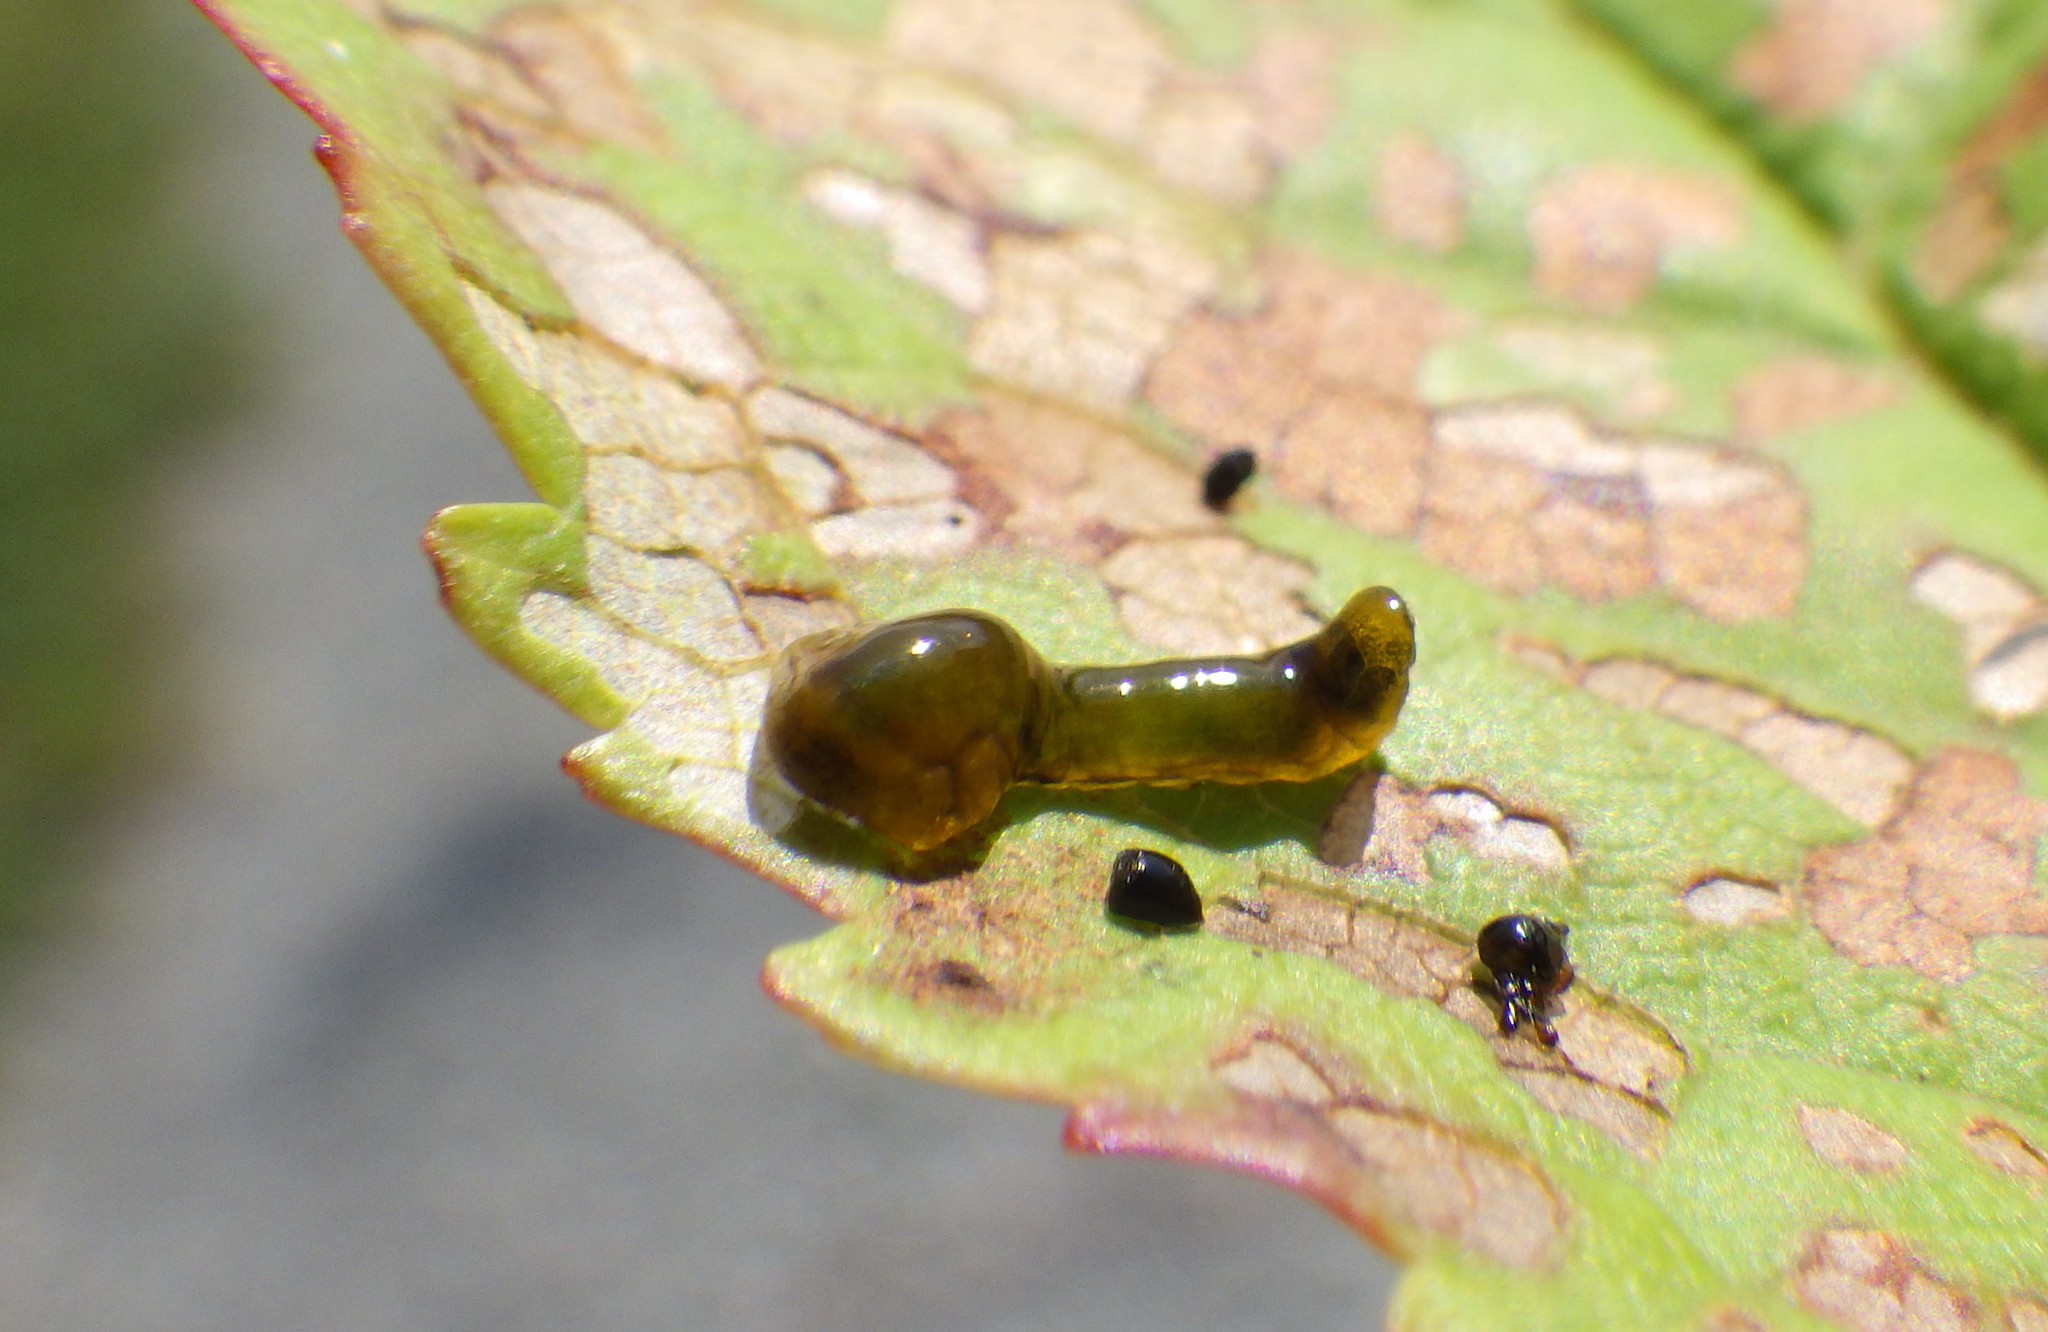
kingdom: Animalia
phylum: Arthropoda
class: Insecta
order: Hymenoptera
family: Tenthredinidae
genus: Caliroa
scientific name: Caliroa cerasi
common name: Pear sawfly
